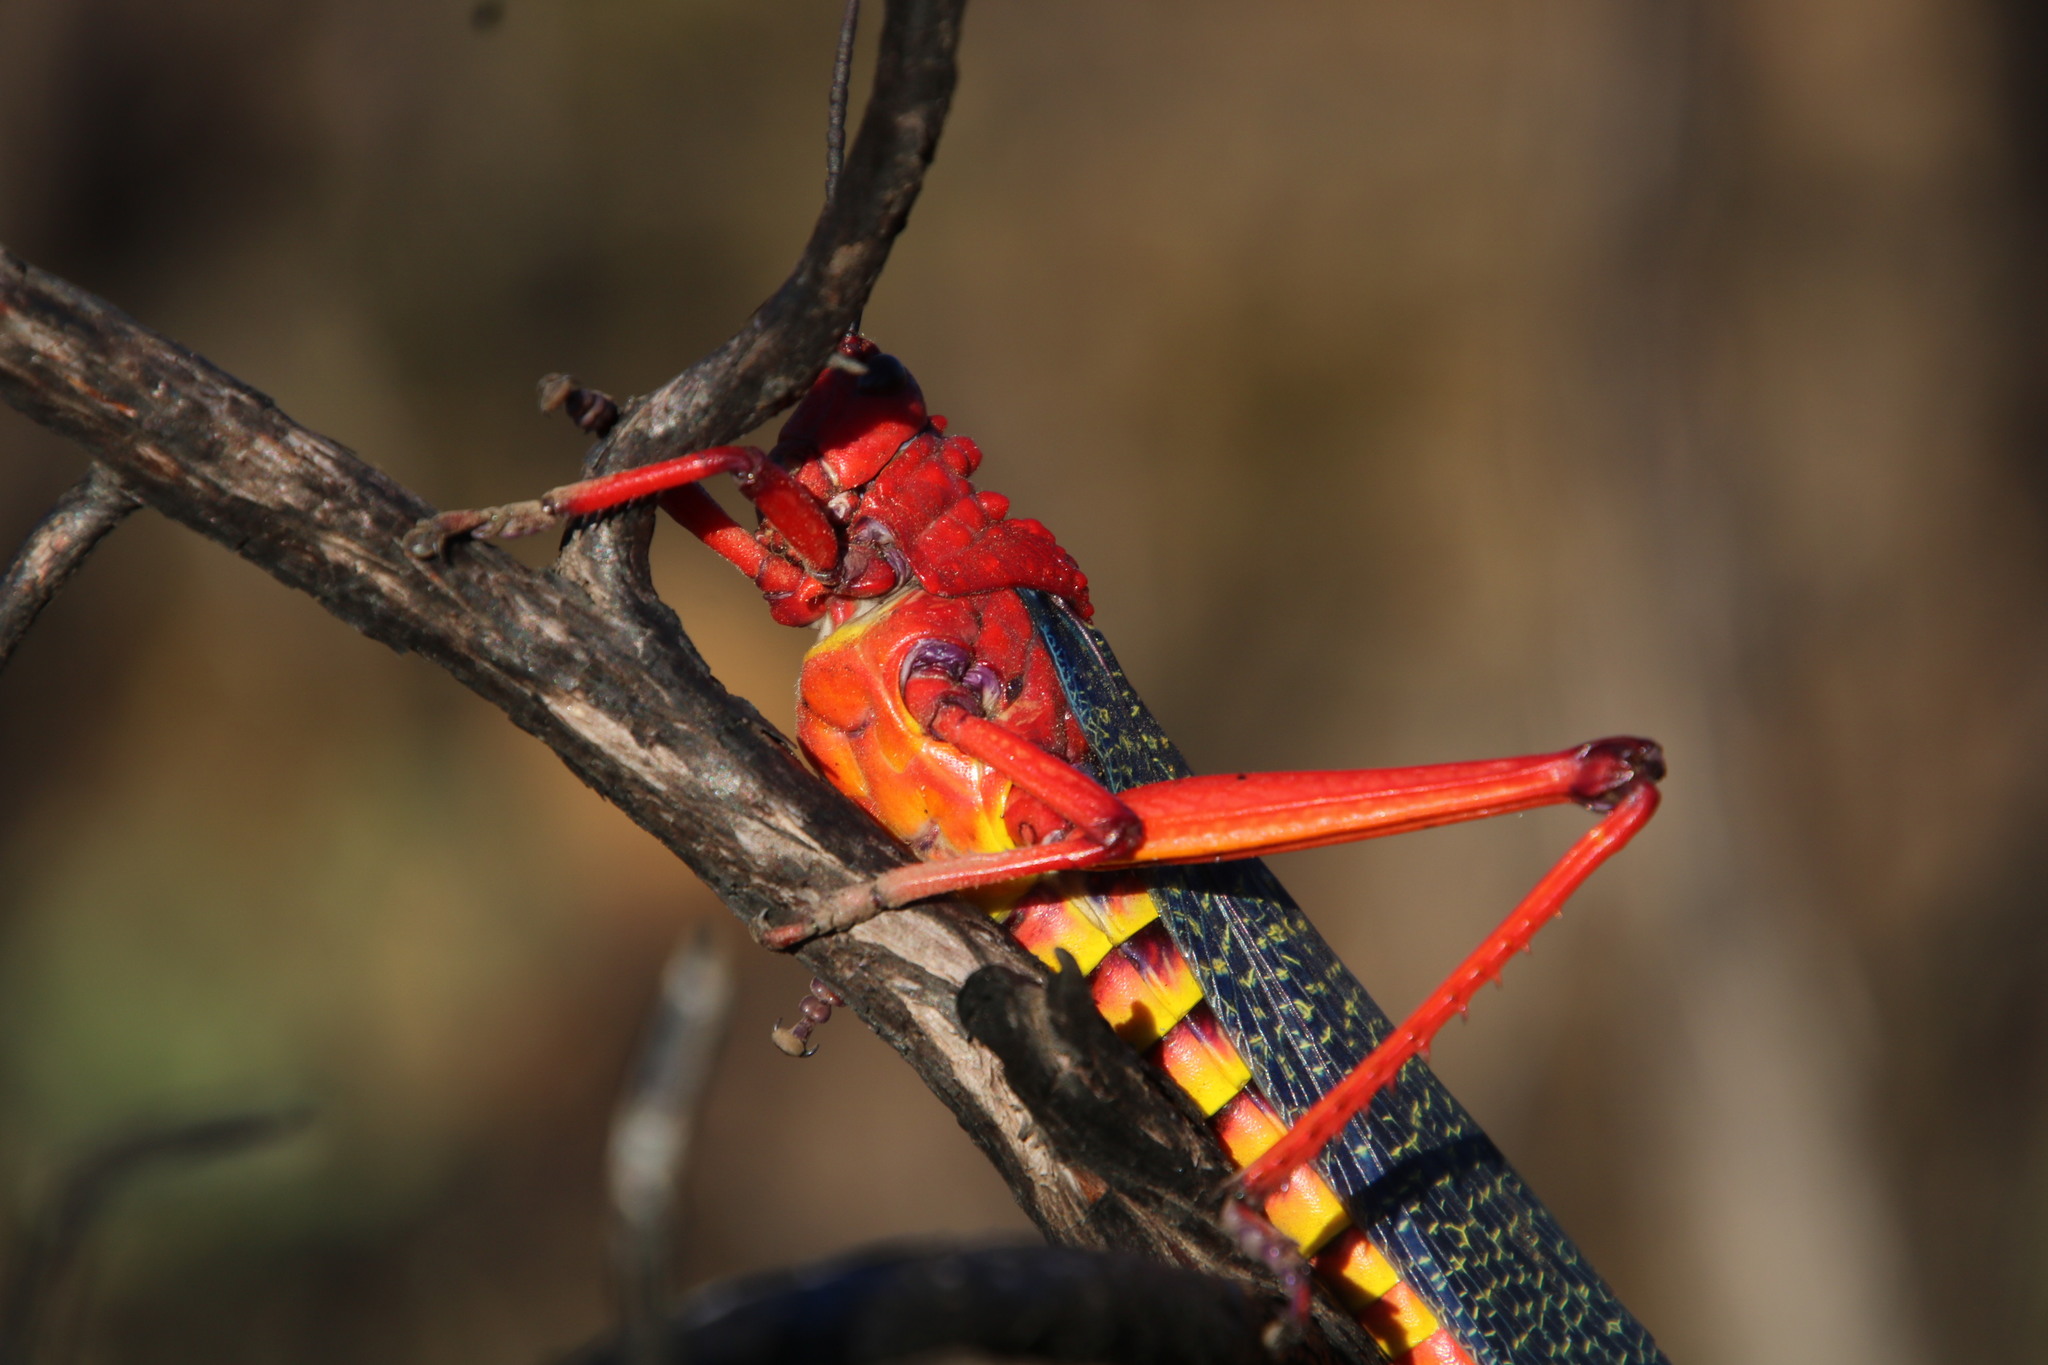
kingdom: Animalia
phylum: Arthropoda
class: Insecta
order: Orthoptera
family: Pyrgomorphidae
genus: Phymateus
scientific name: Phymateus morbillosus
